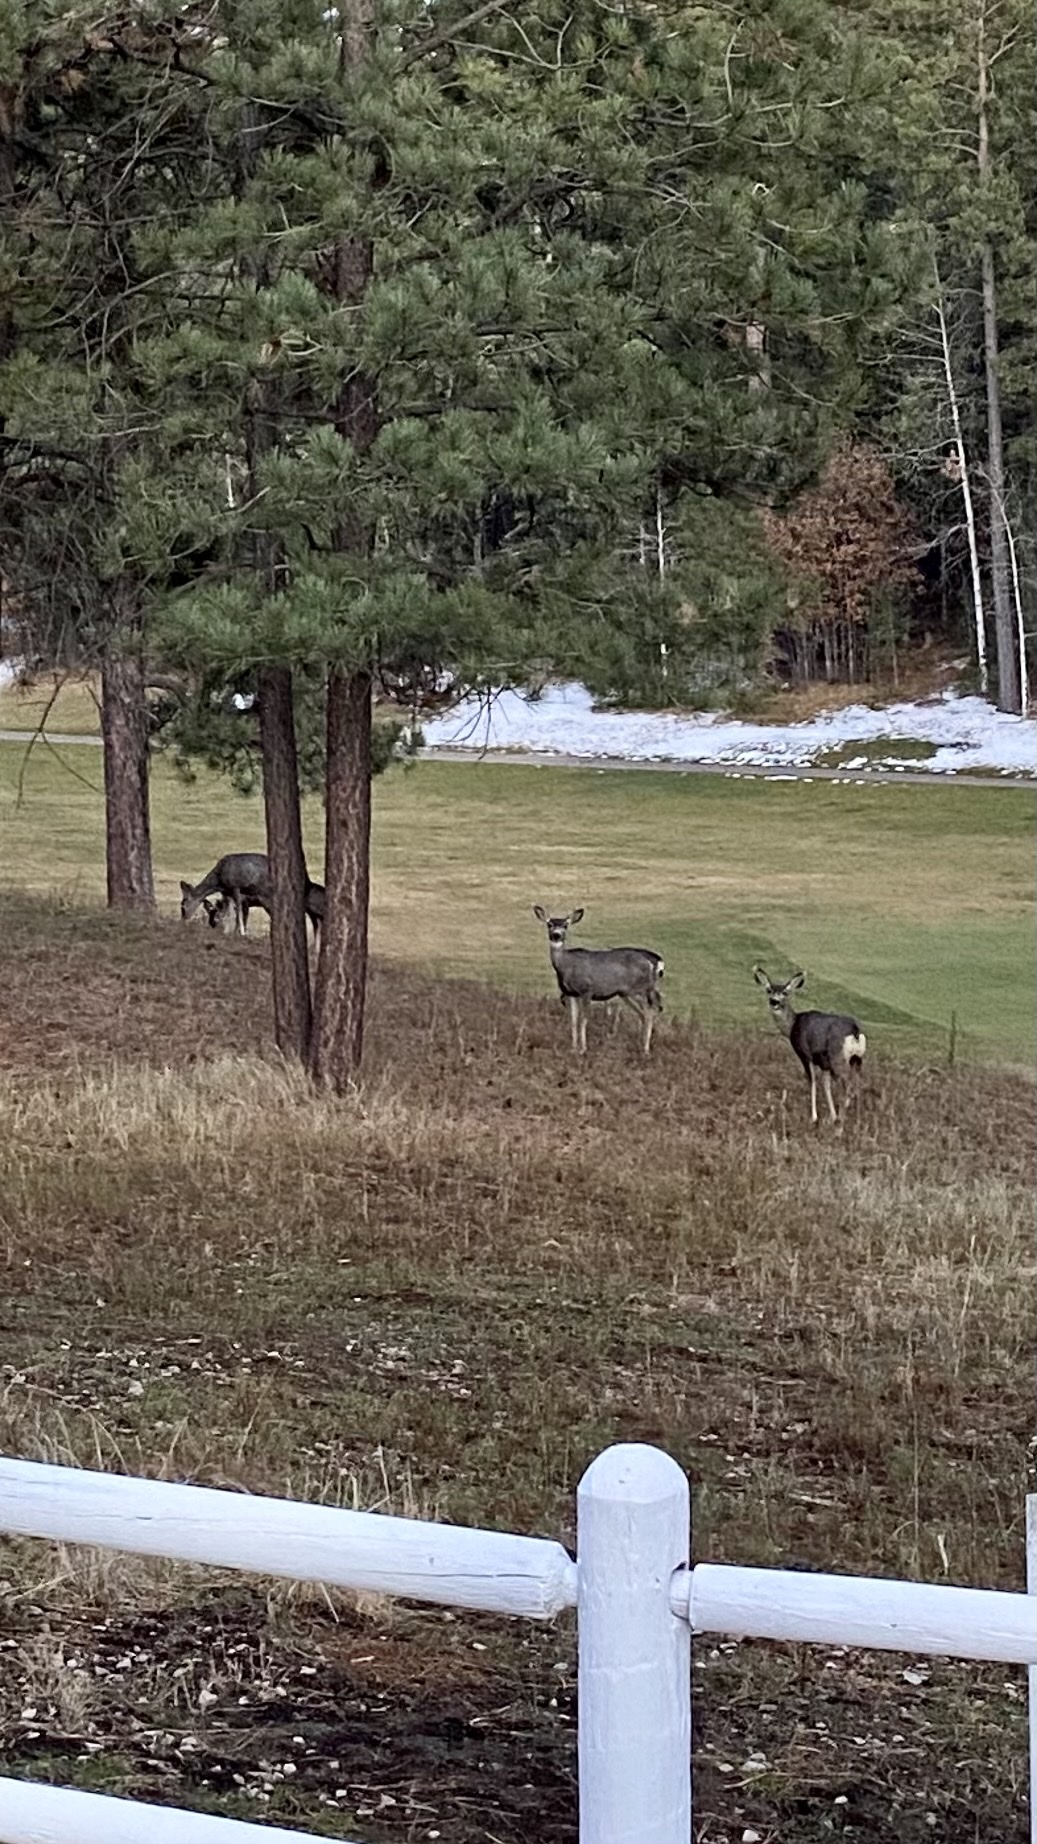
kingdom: Animalia
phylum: Chordata
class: Mammalia
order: Artiodactyla
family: Cervidae
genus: Odocoileus
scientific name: Odocoileus hemionus
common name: Mule deer
